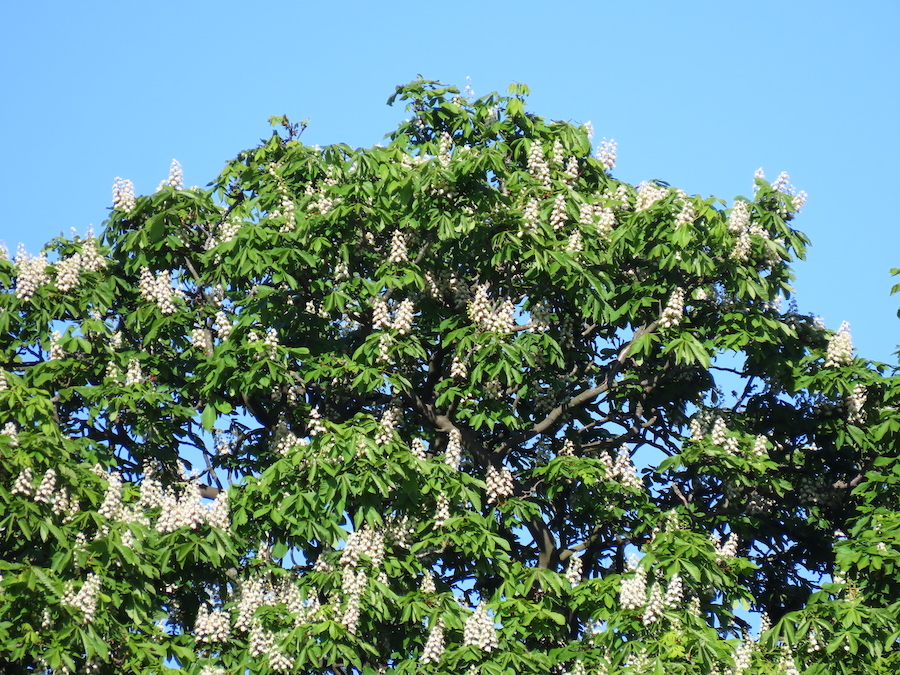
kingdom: Plantae
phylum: Tracheophyta
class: Magnoliopsida
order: Sapindales
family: Sapindaceae
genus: Aesculus
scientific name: Aesculus hippocastanum
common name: Horse-chestnut
